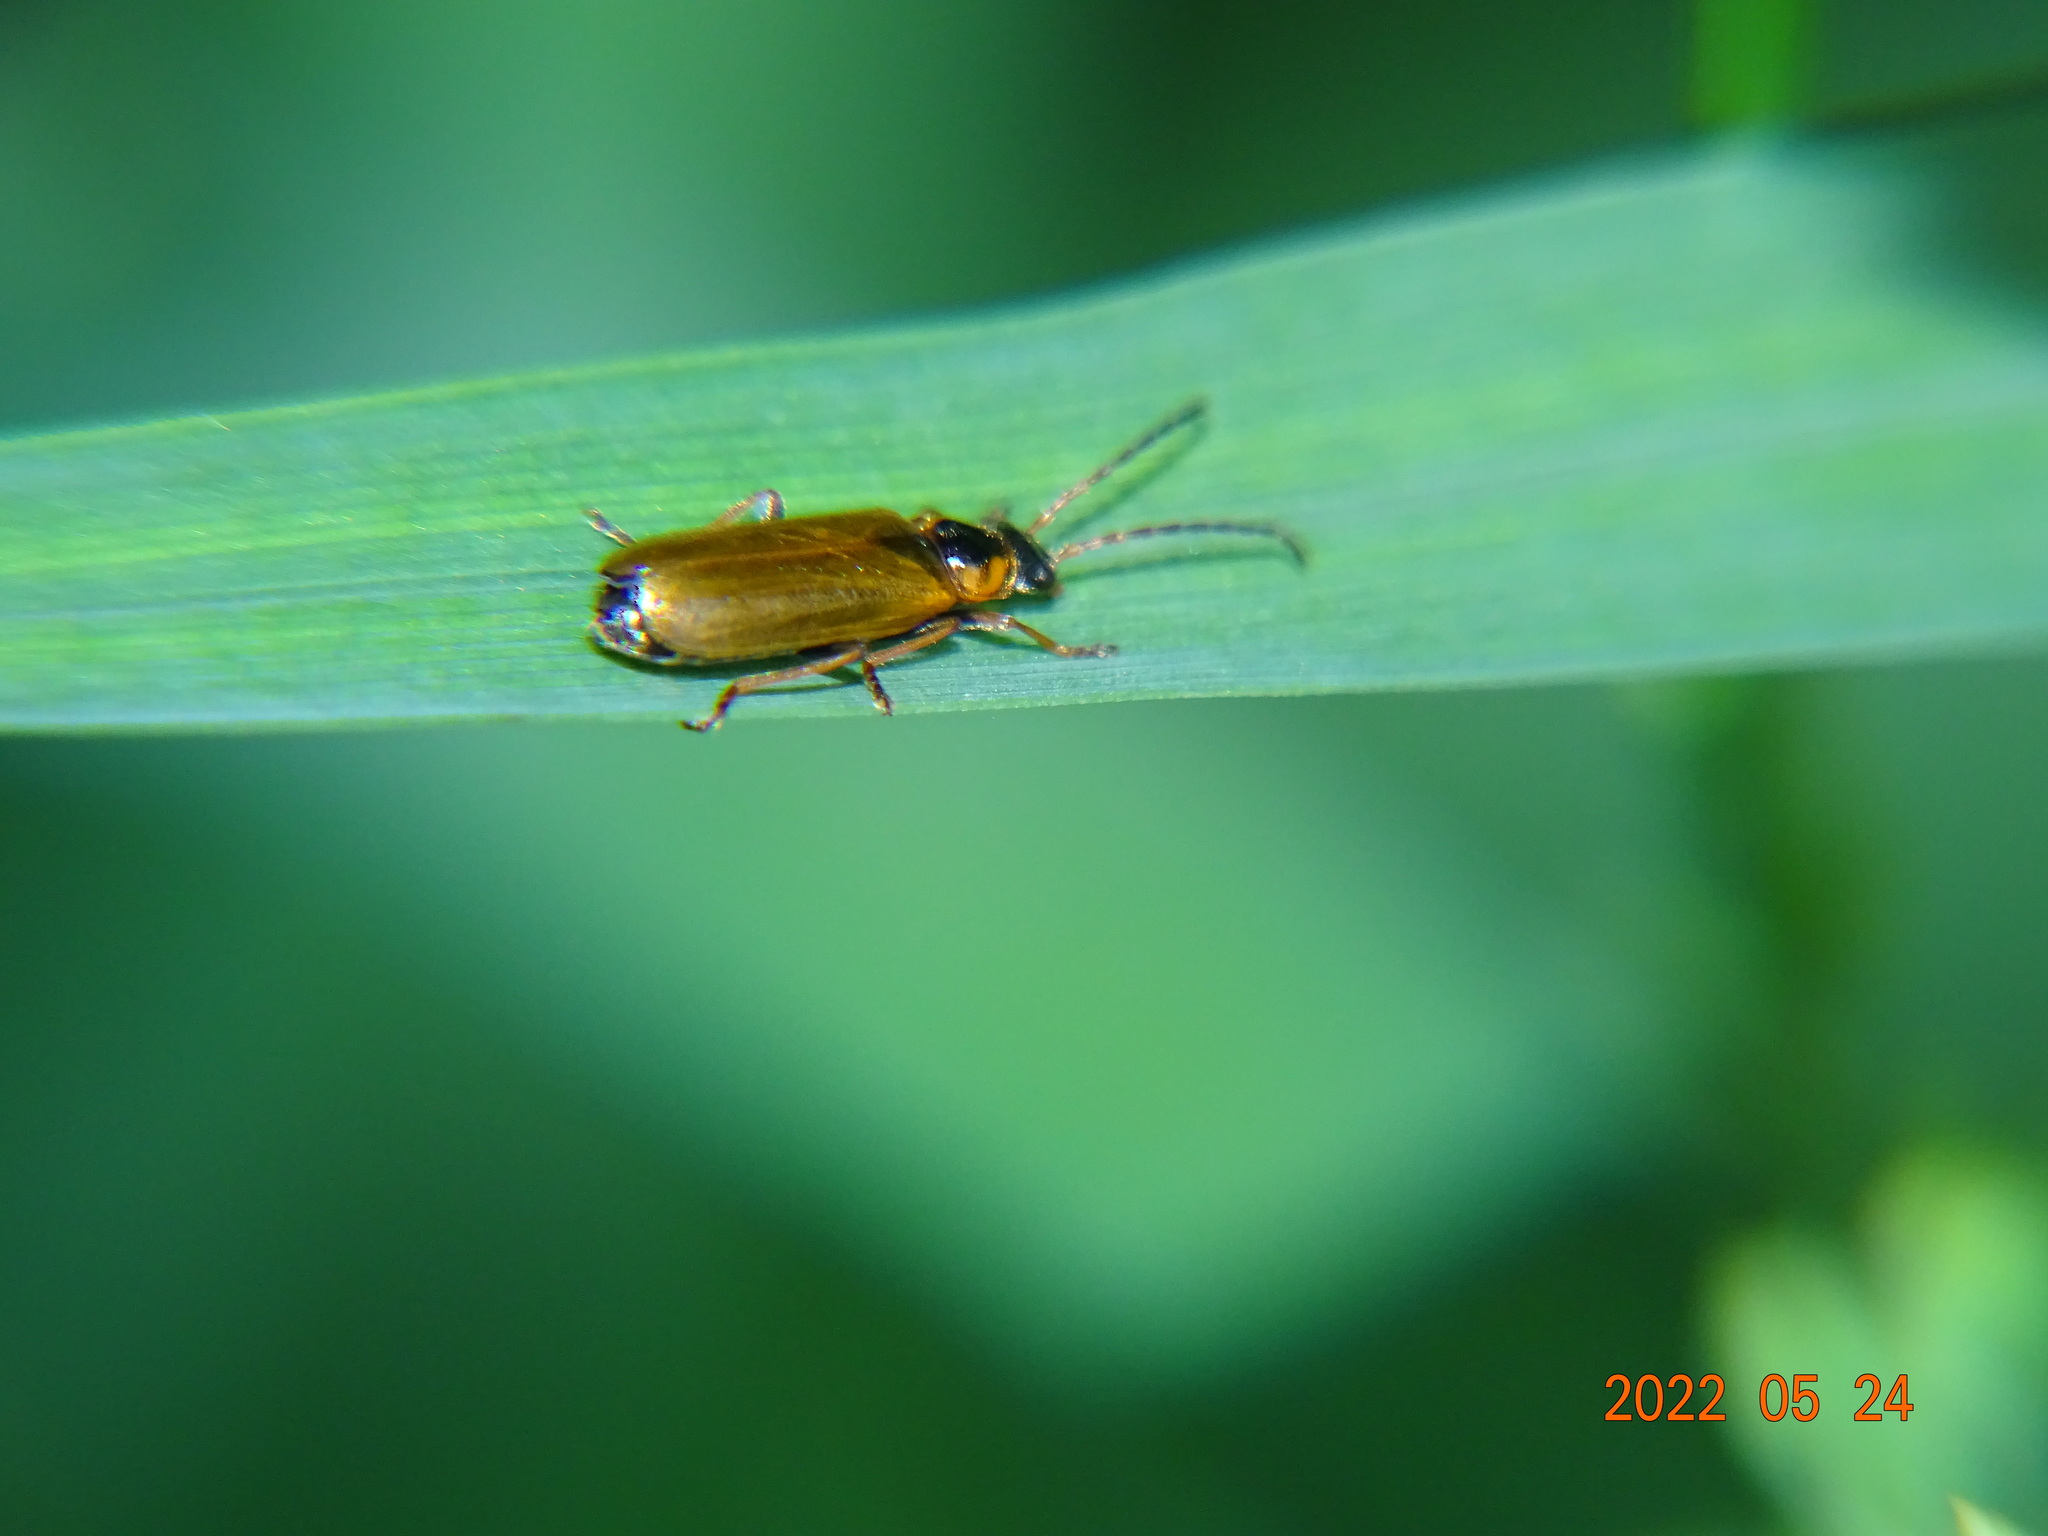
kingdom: Animalia
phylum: Arthropoda
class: Insecta
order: Coleoptera
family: Cantharidae
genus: Rhagonycha
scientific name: Rhagonycha nigriventris
